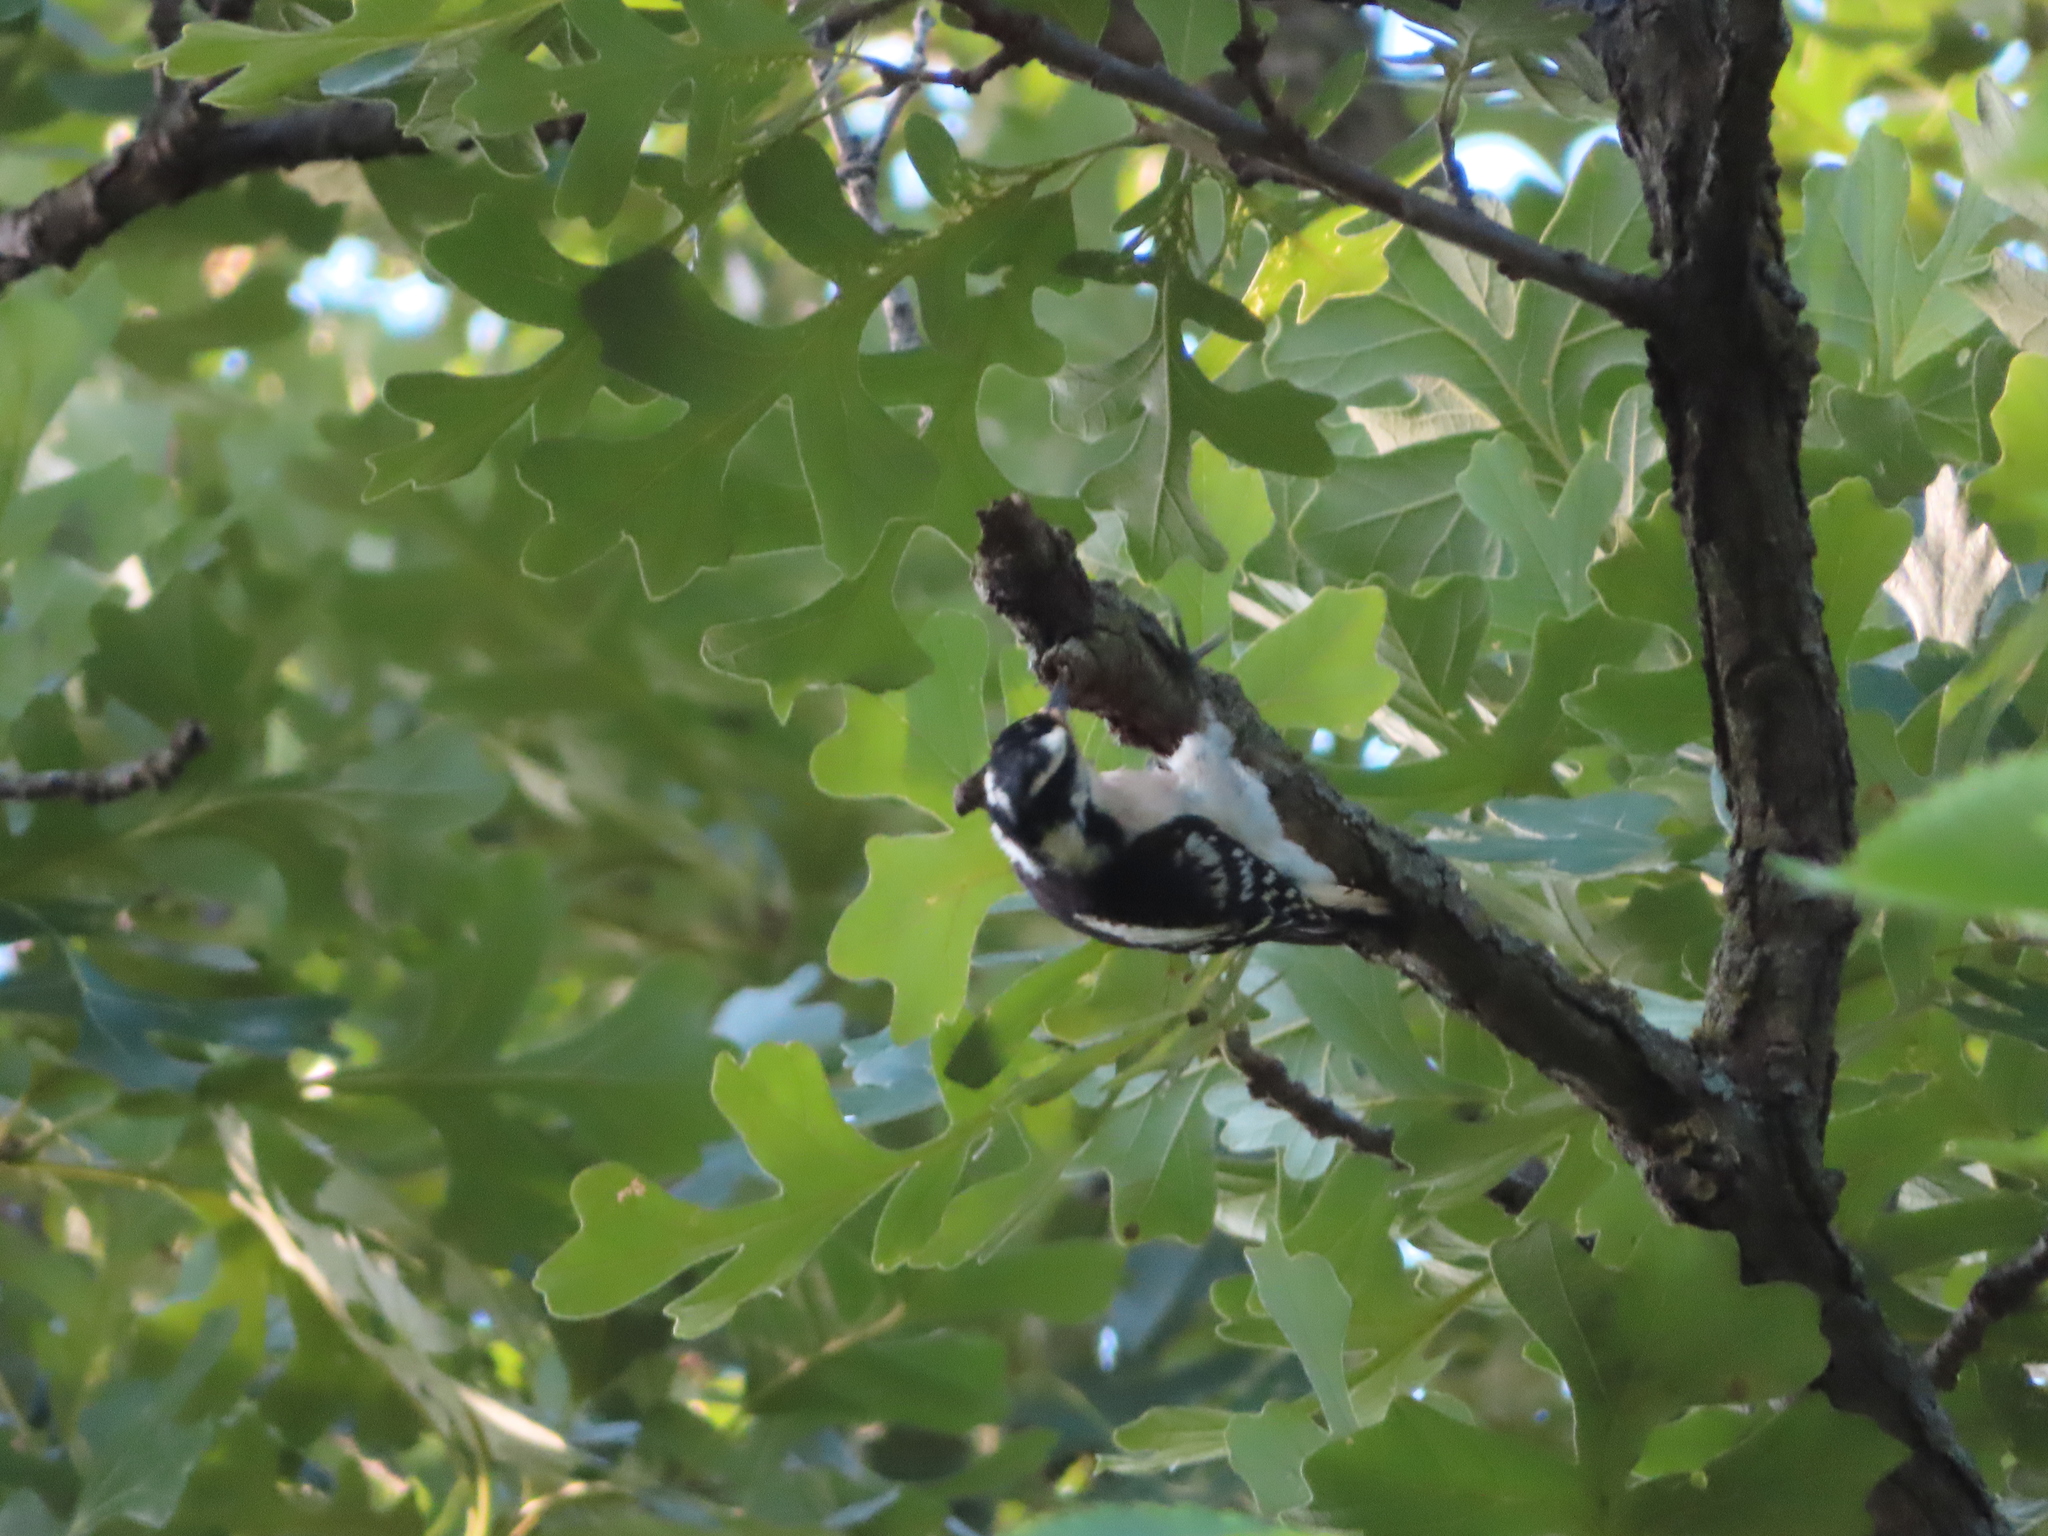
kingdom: Animalia
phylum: Chordata
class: Aves
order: Piciformes
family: Picidae
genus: Dryobates
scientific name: Dryobates pubescens
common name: Downy woodpecker
